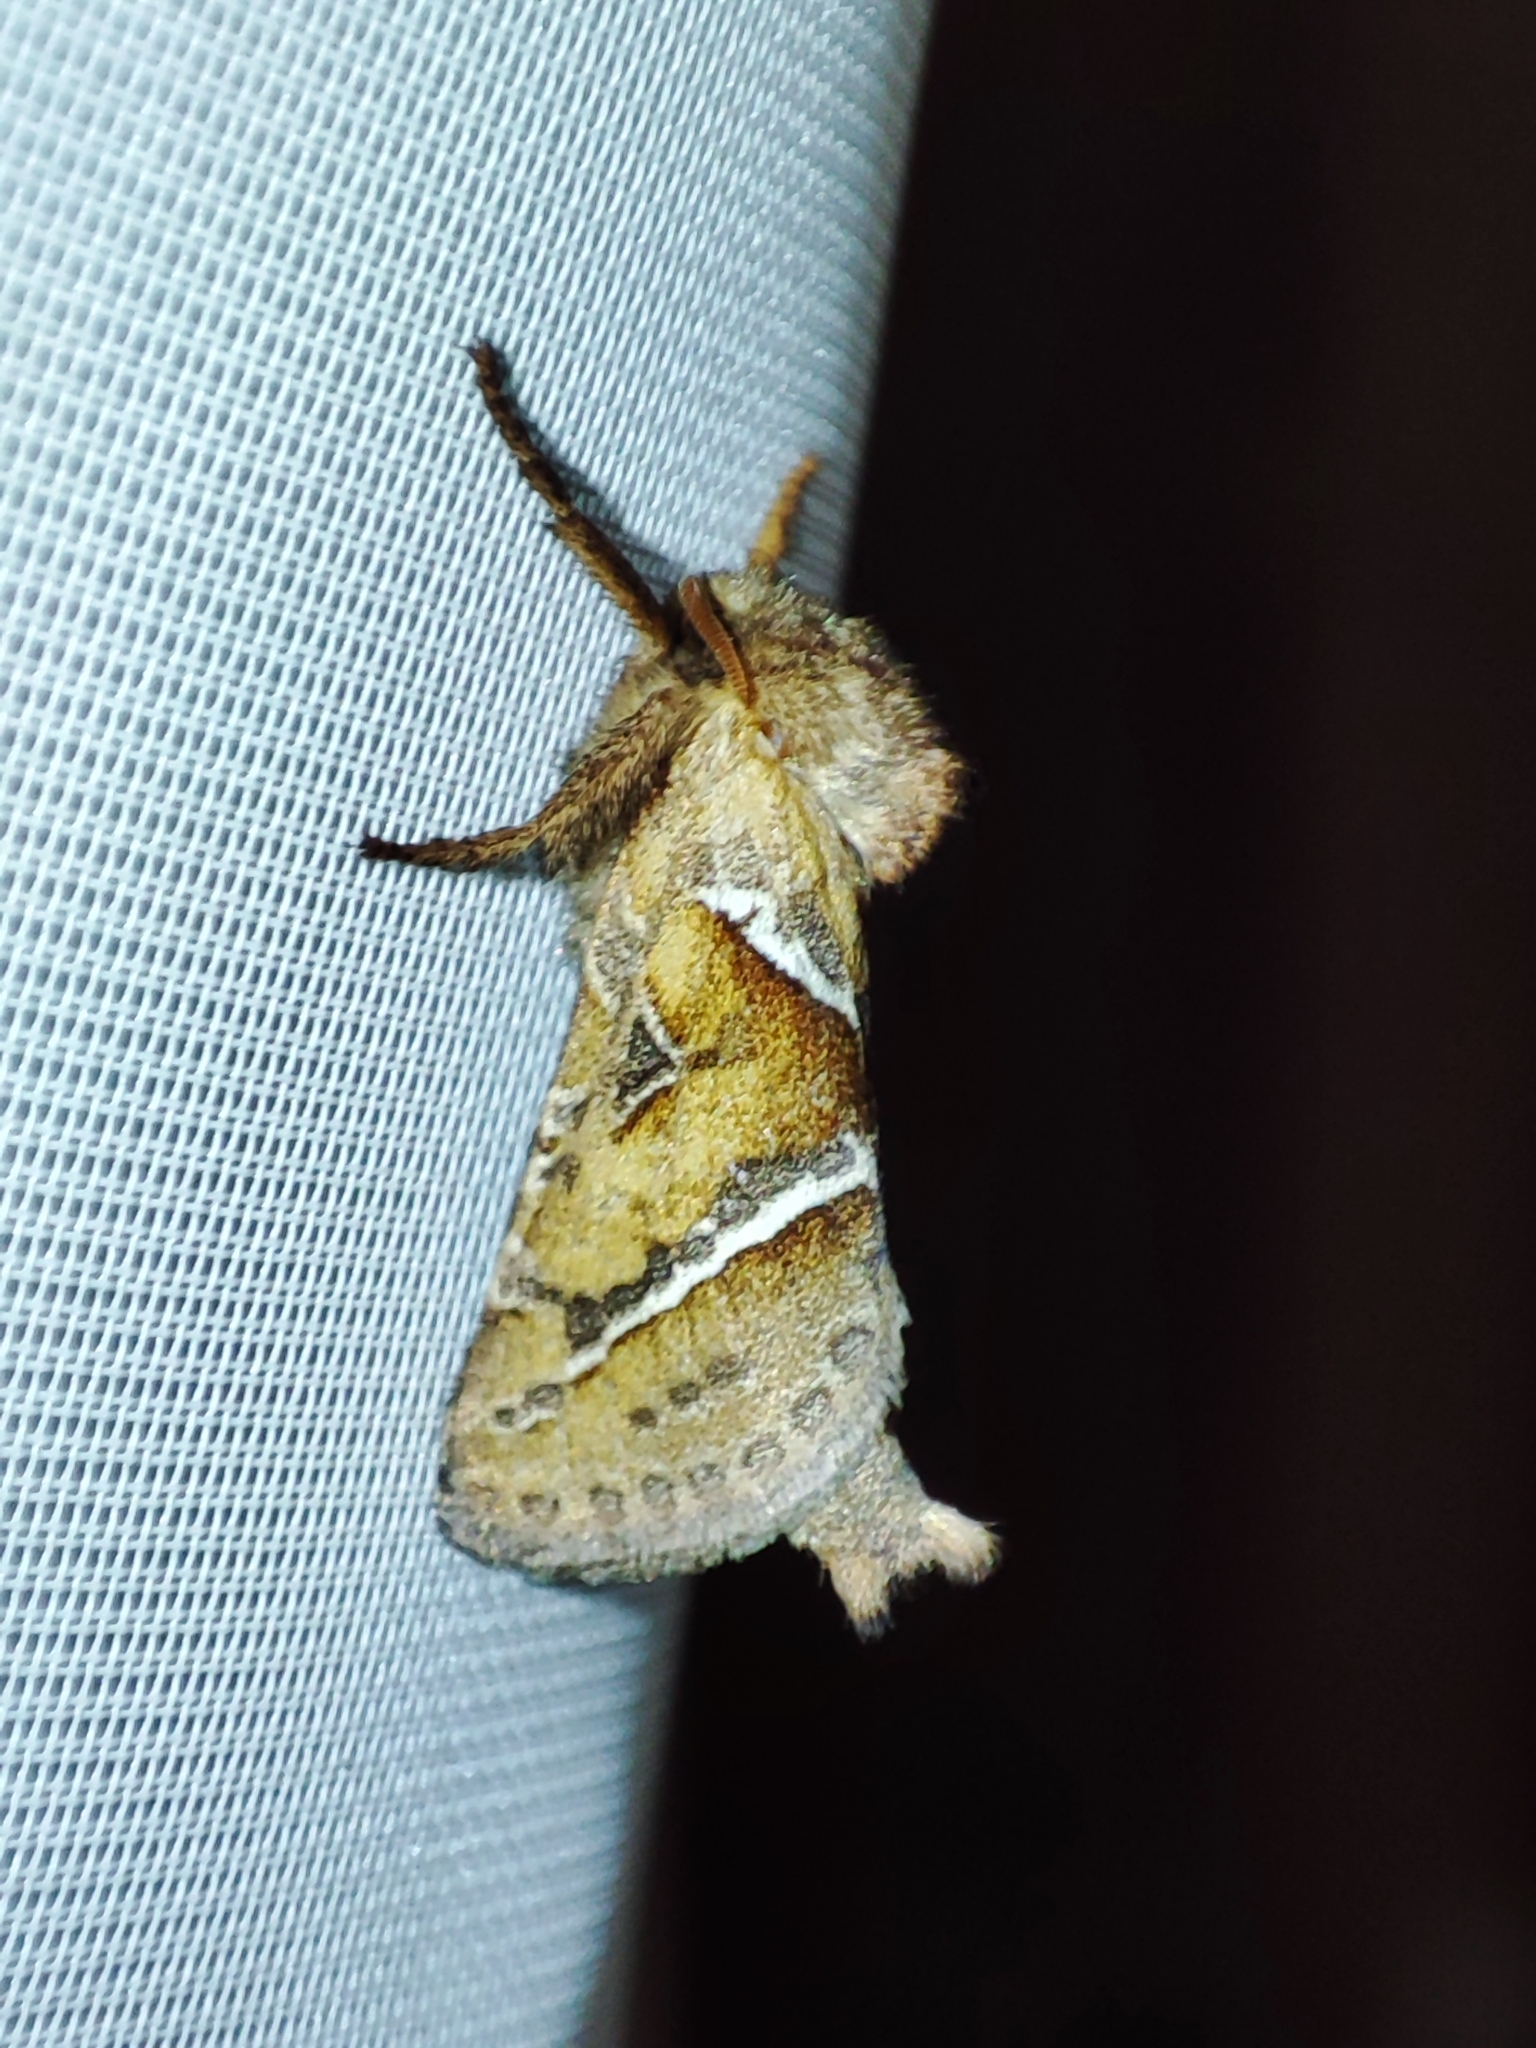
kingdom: Animalia
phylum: Arthropoda
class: Insecta
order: Lepidoptera
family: Hepialidae
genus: Triodia
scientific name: Triodia sylvina
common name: Orange swift
